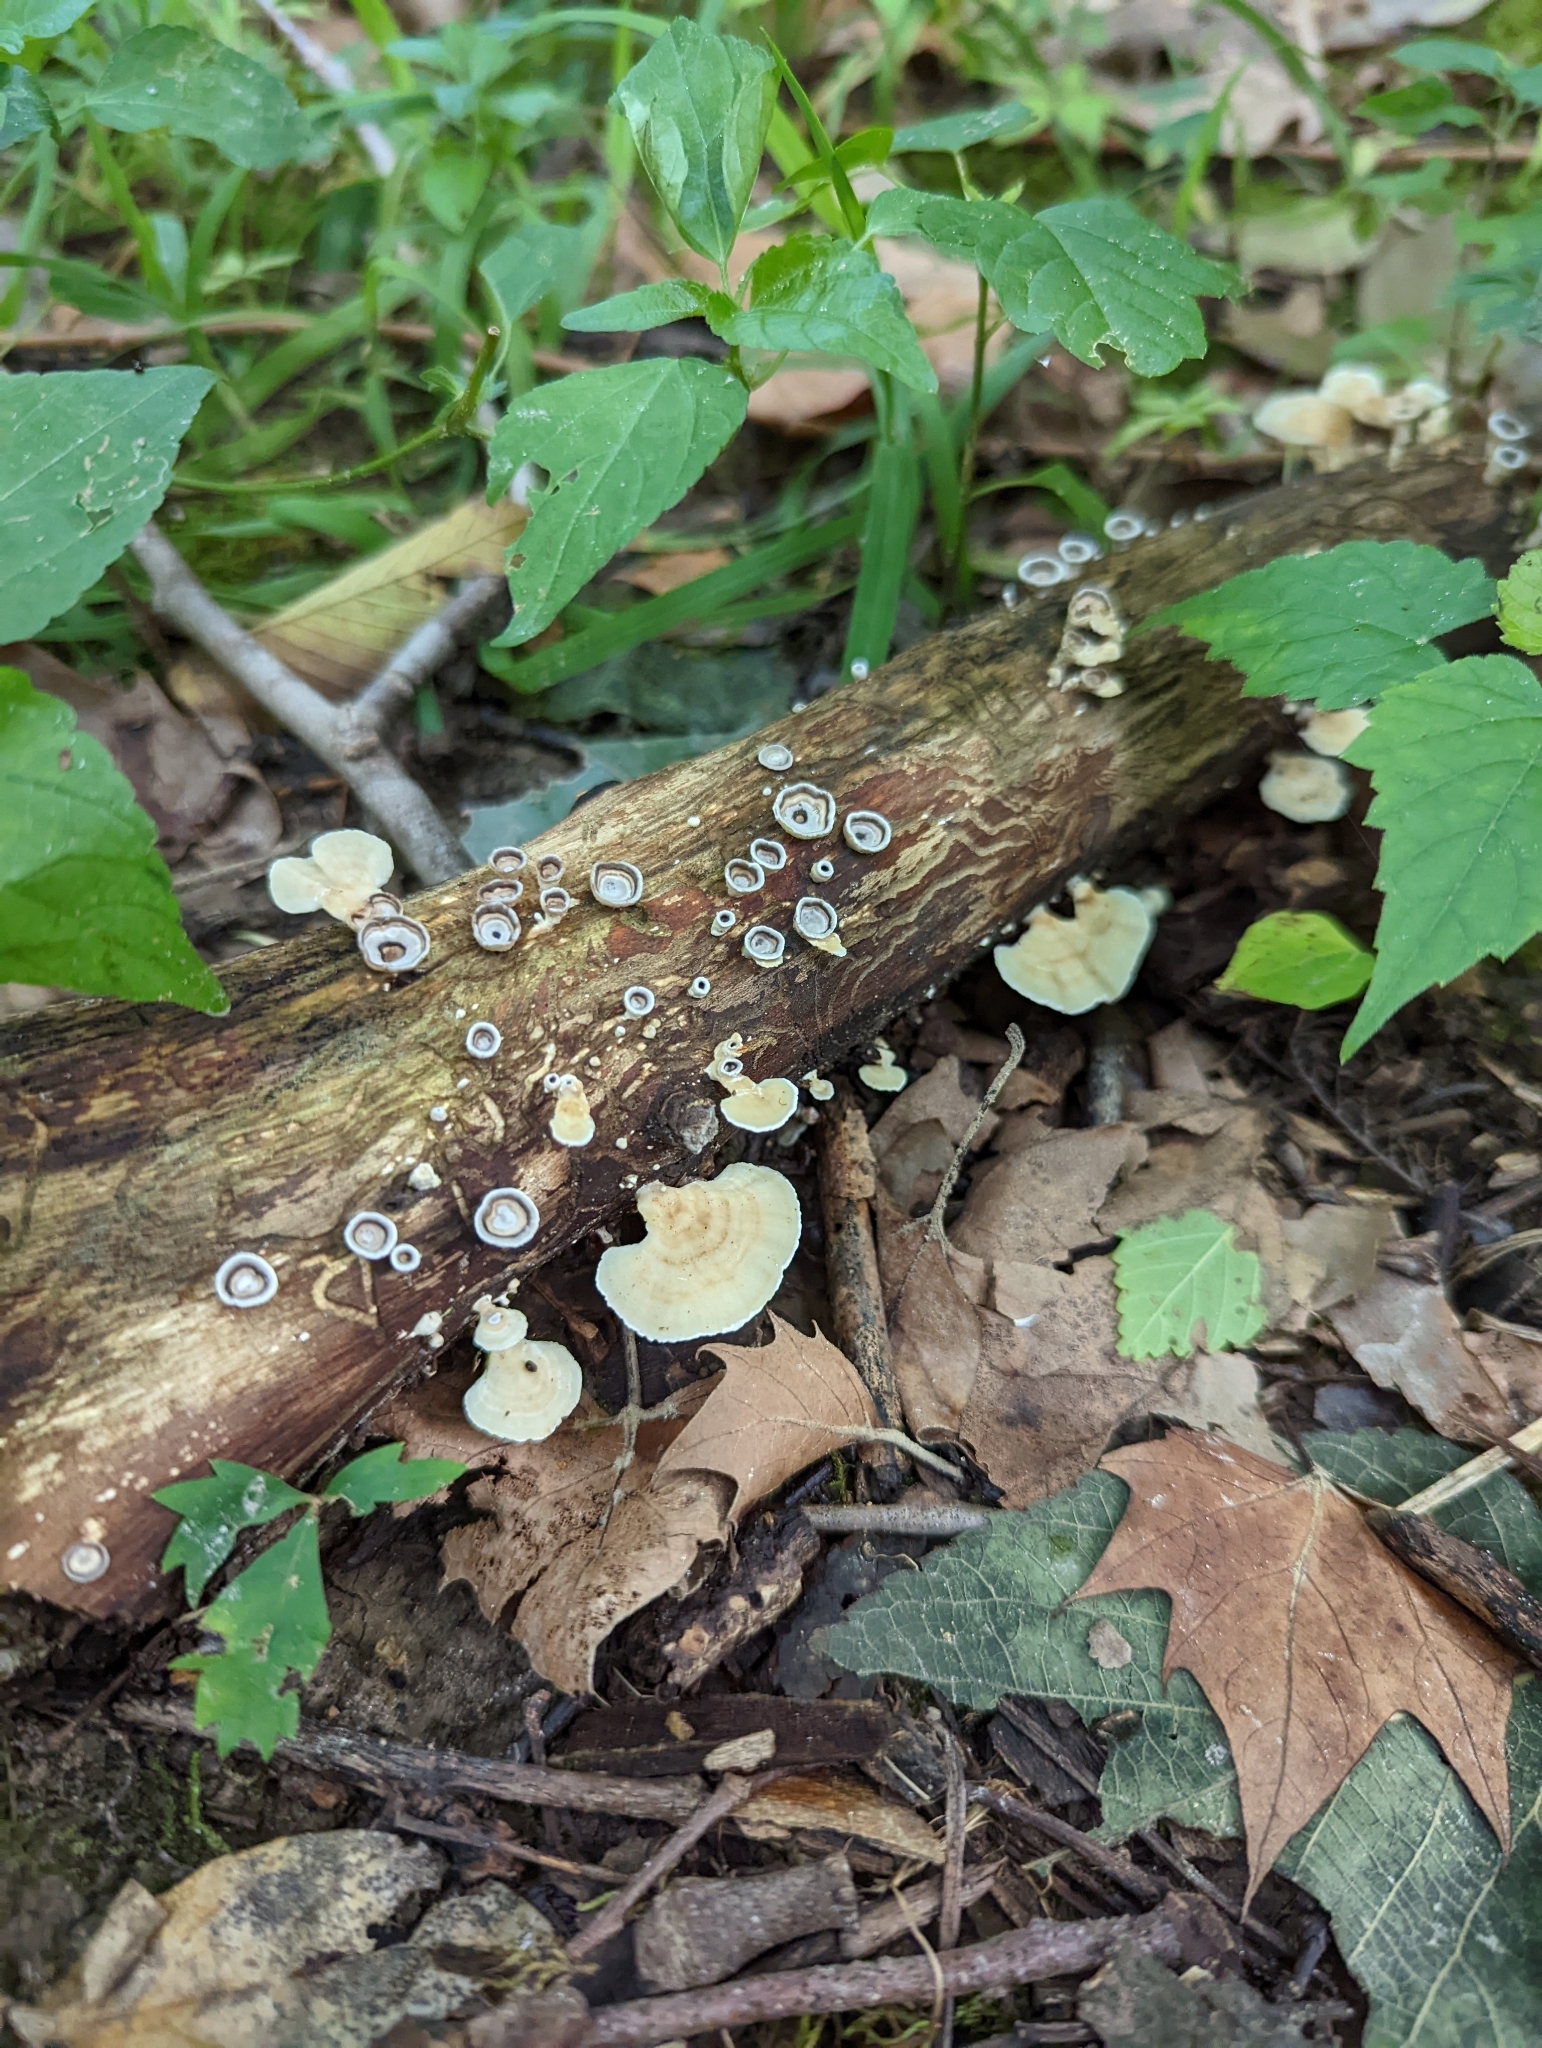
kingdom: Fungi
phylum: Basidiomycota
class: Agaricomycetes
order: Polyporales
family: Polyporaceae
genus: Poronidulus
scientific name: Poronidulus conchifer
